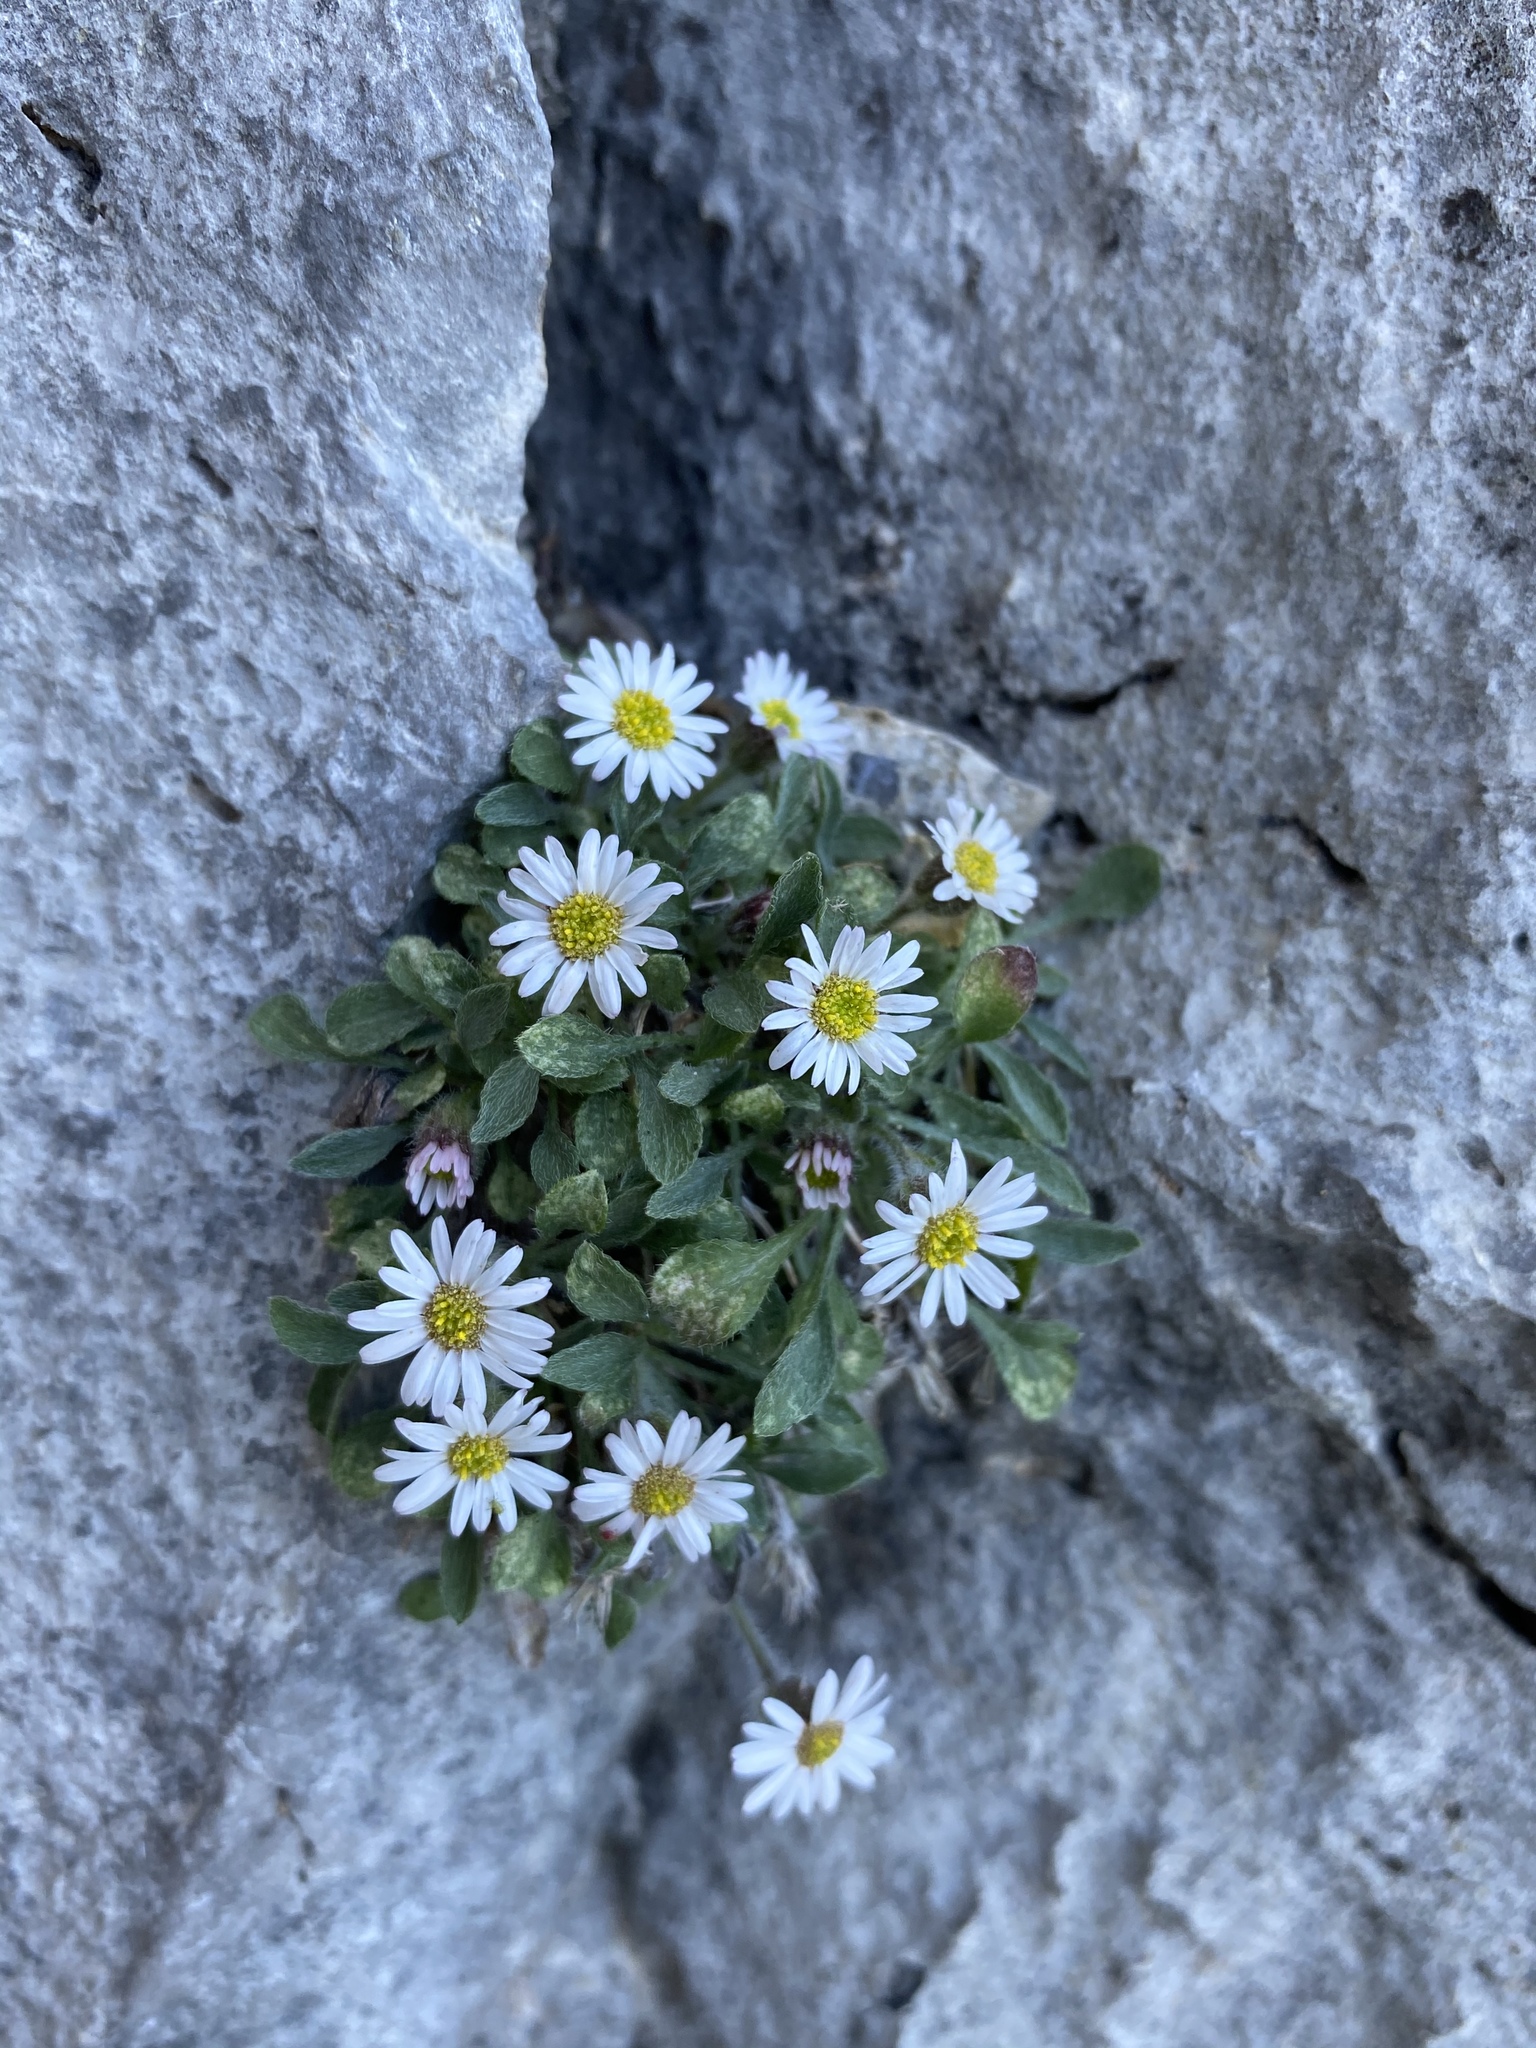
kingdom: Plantae
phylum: Tracheophyta
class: Magnoliopsida
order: Asterales
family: Asteraceae
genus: Erigeron
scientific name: Erigeron uncialis
